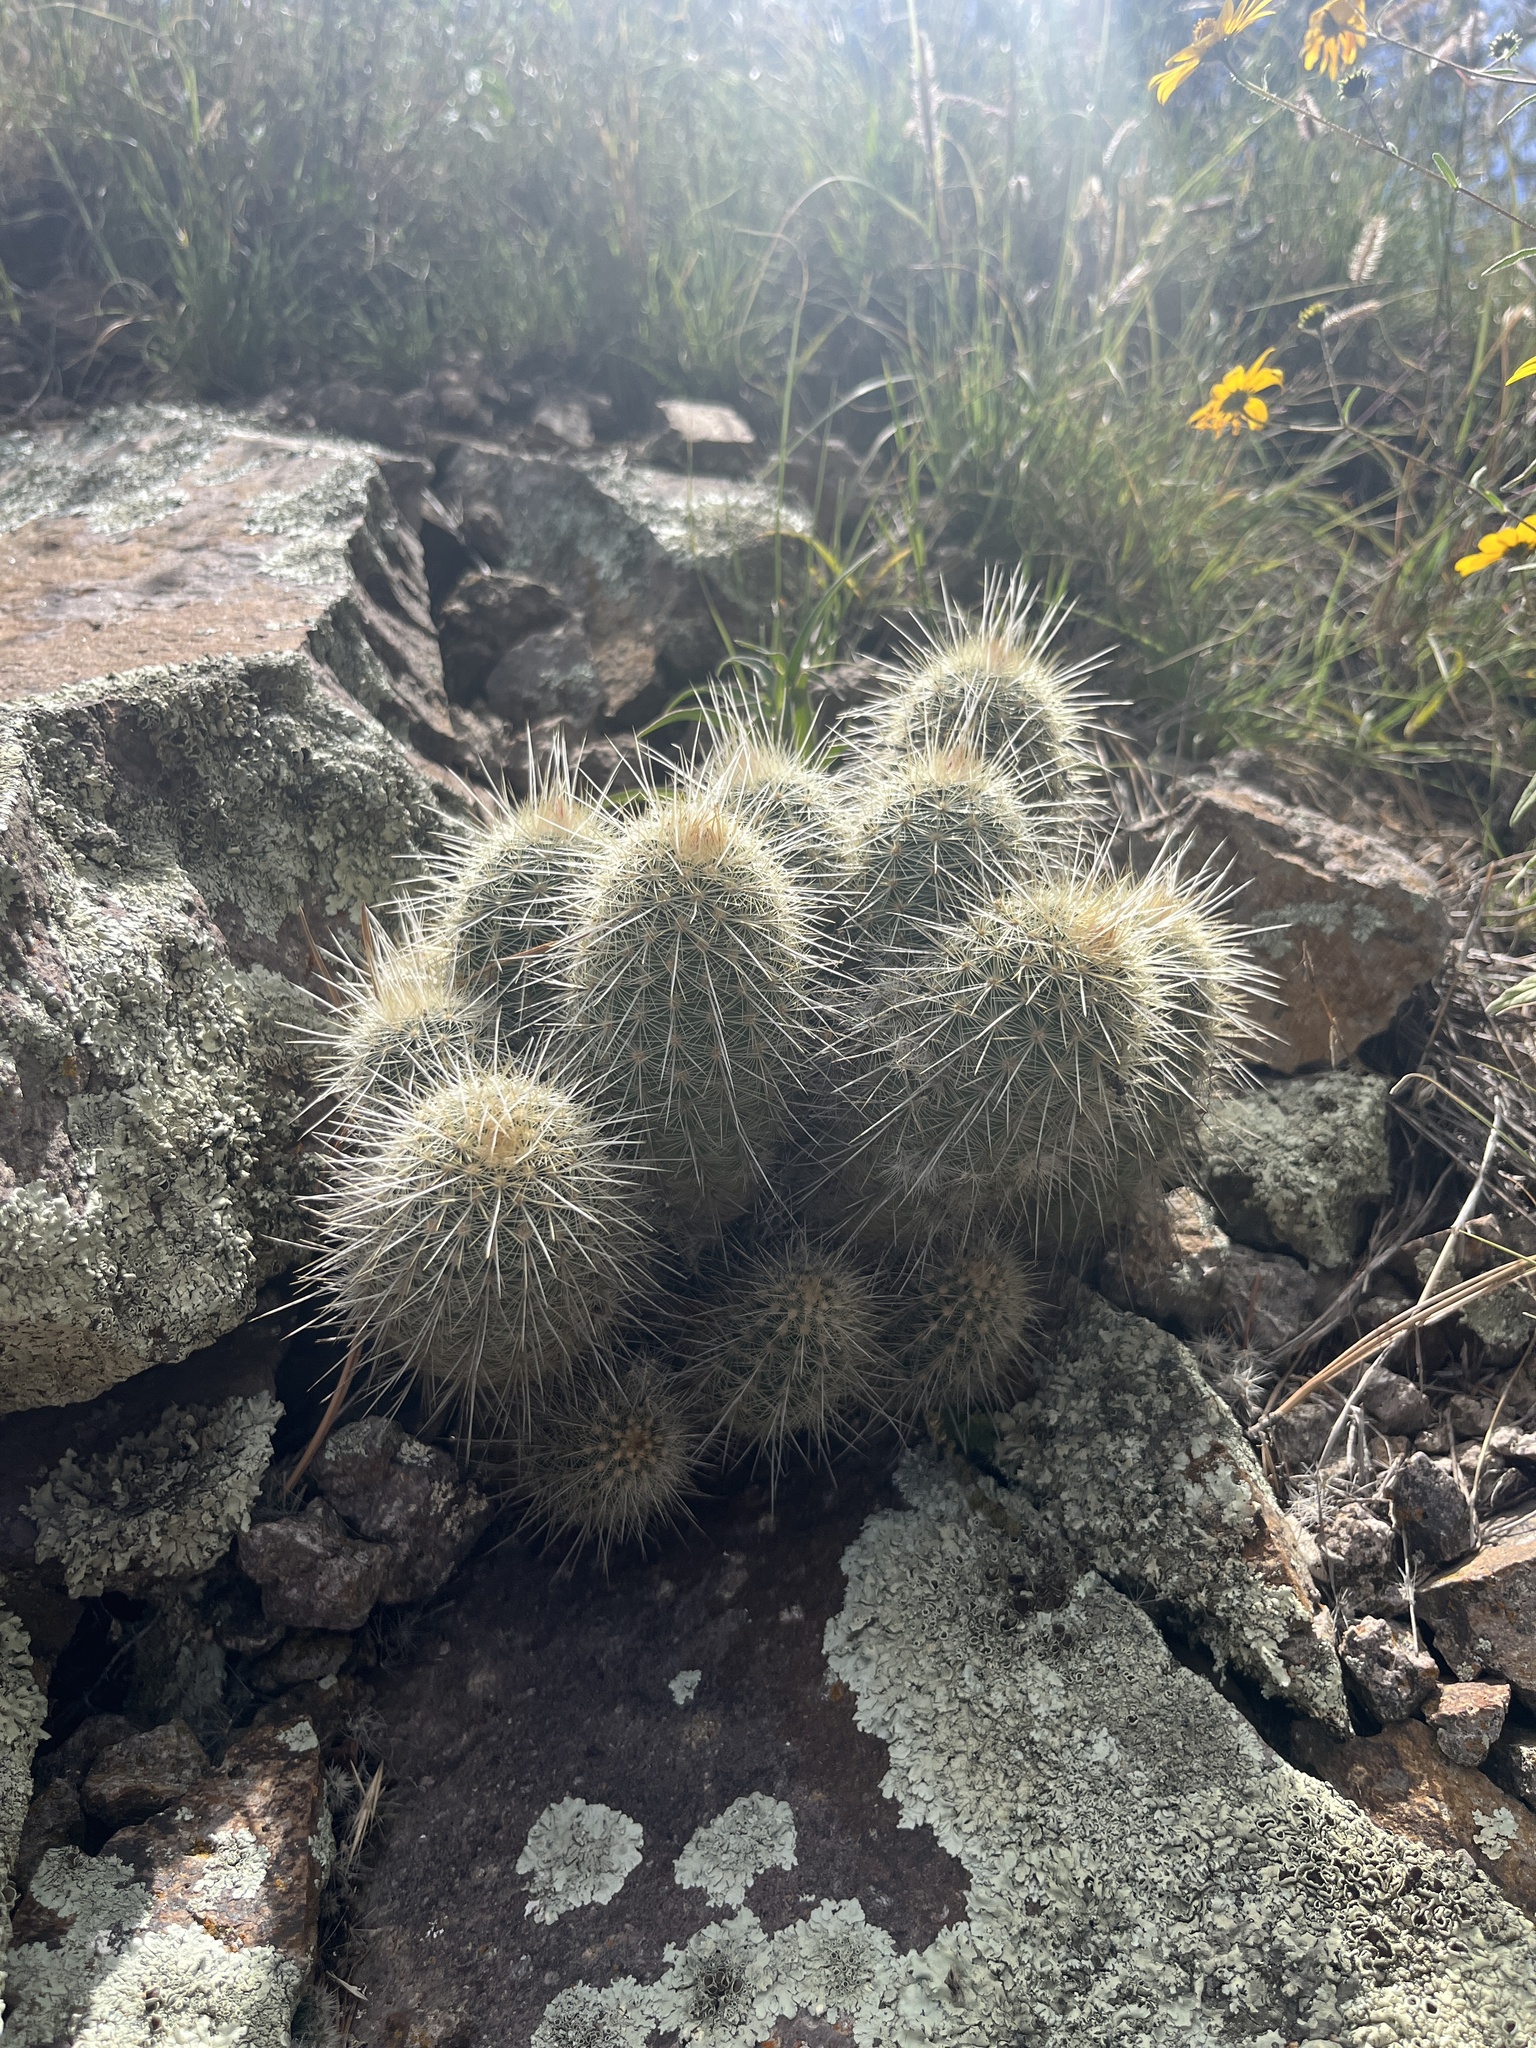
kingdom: Plantae
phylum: Tracheophyta
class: Magnoliopsida
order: Caryophyllales
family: Cactaceae
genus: Echinocereus
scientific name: Echinocereus
